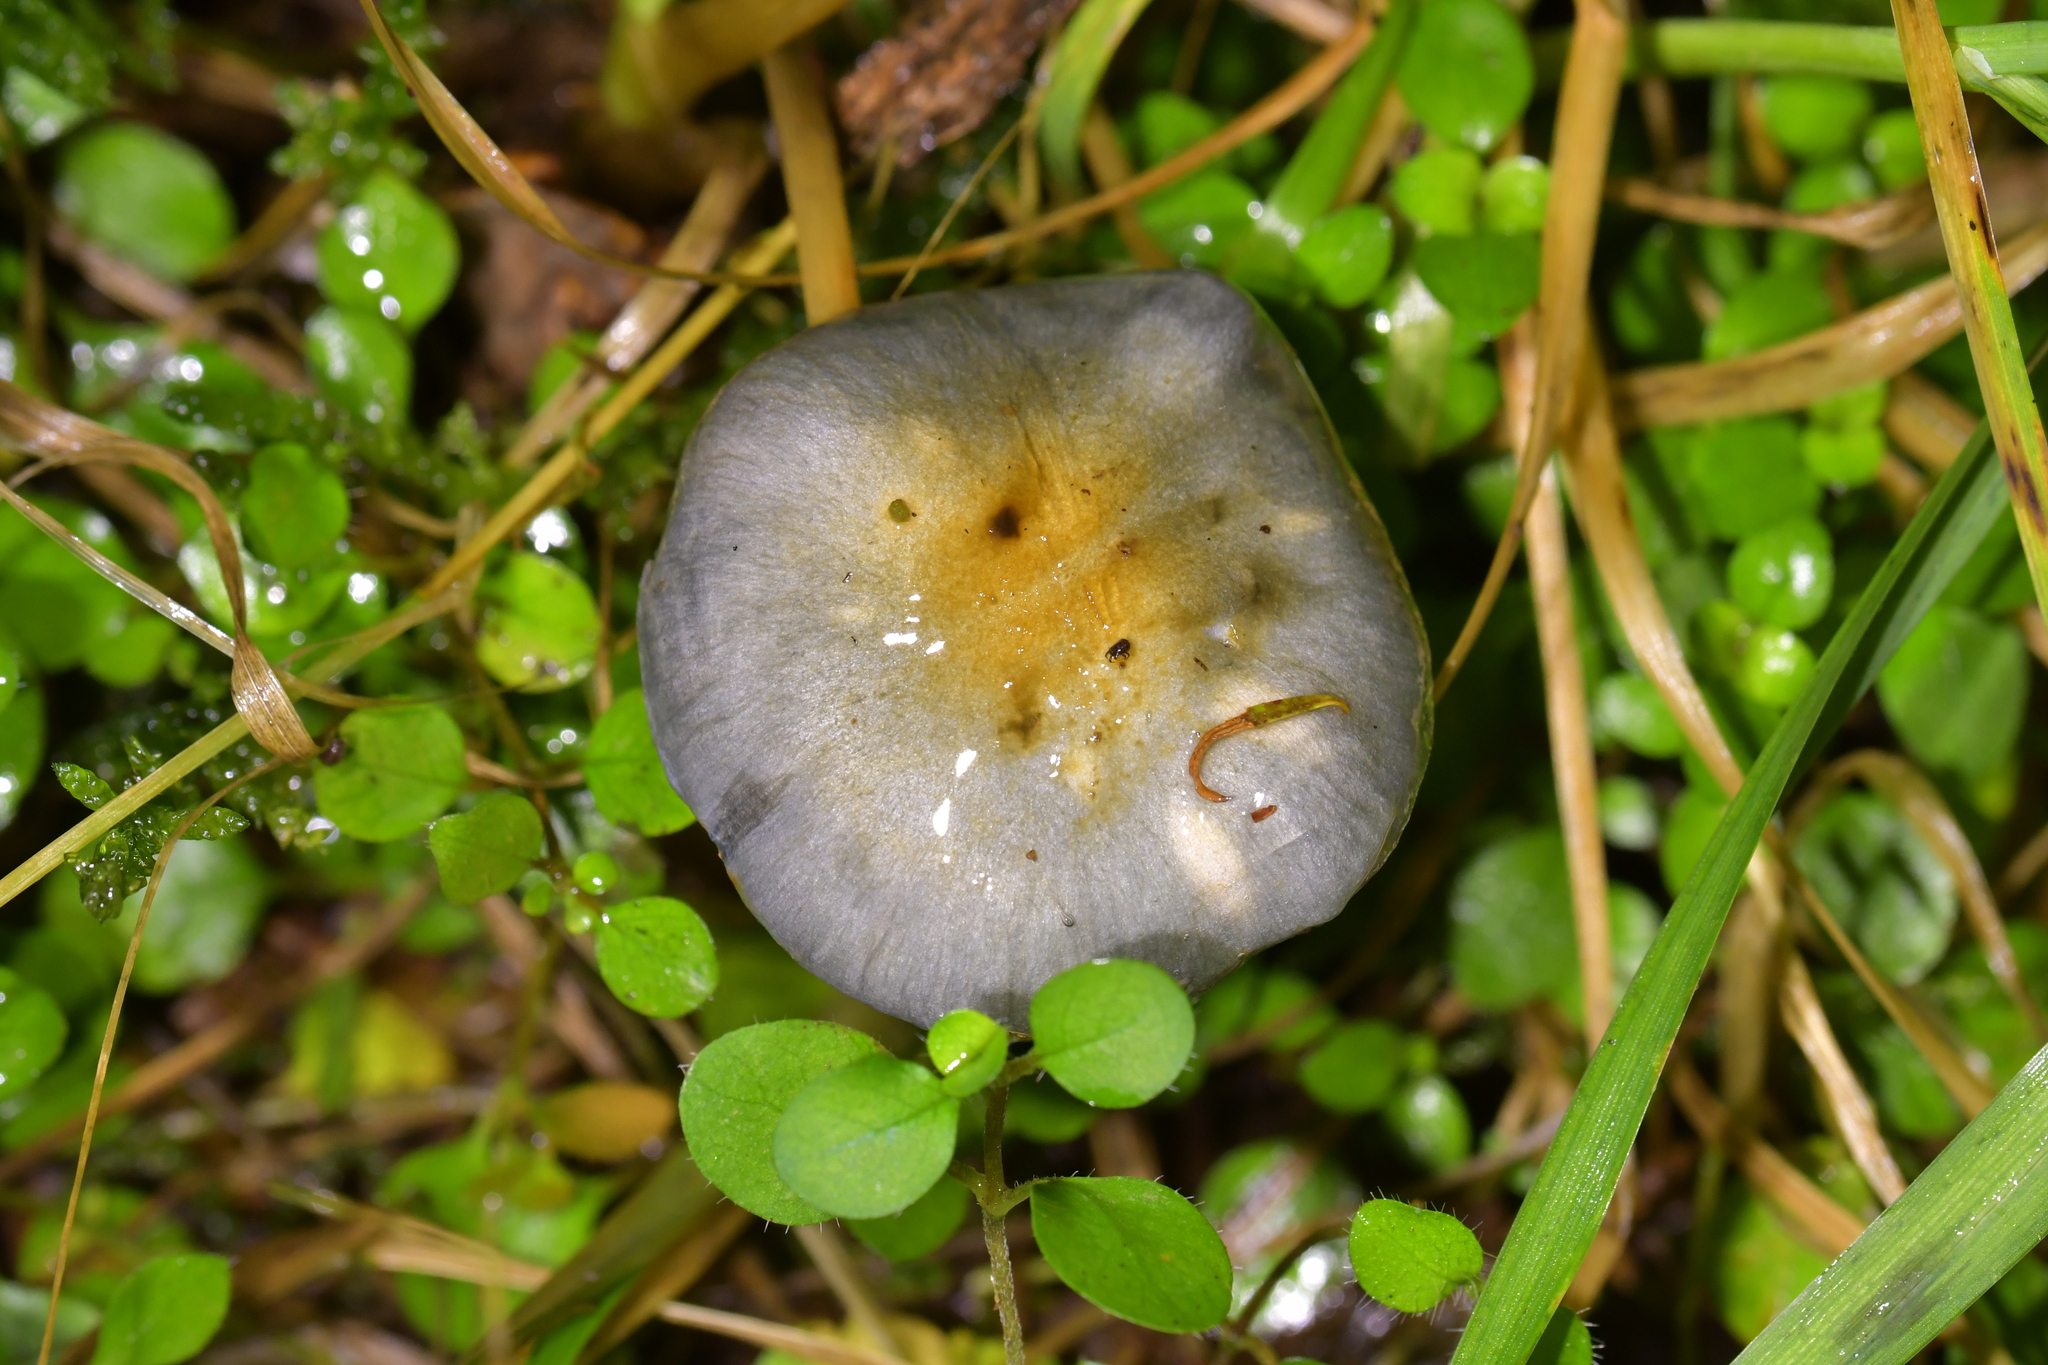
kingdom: Fungi
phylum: Basidiomycota
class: Agaricomycetes
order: Agaricales
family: Cortinariaceae
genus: Cortinarius
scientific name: Cortinarius rotundisporus
